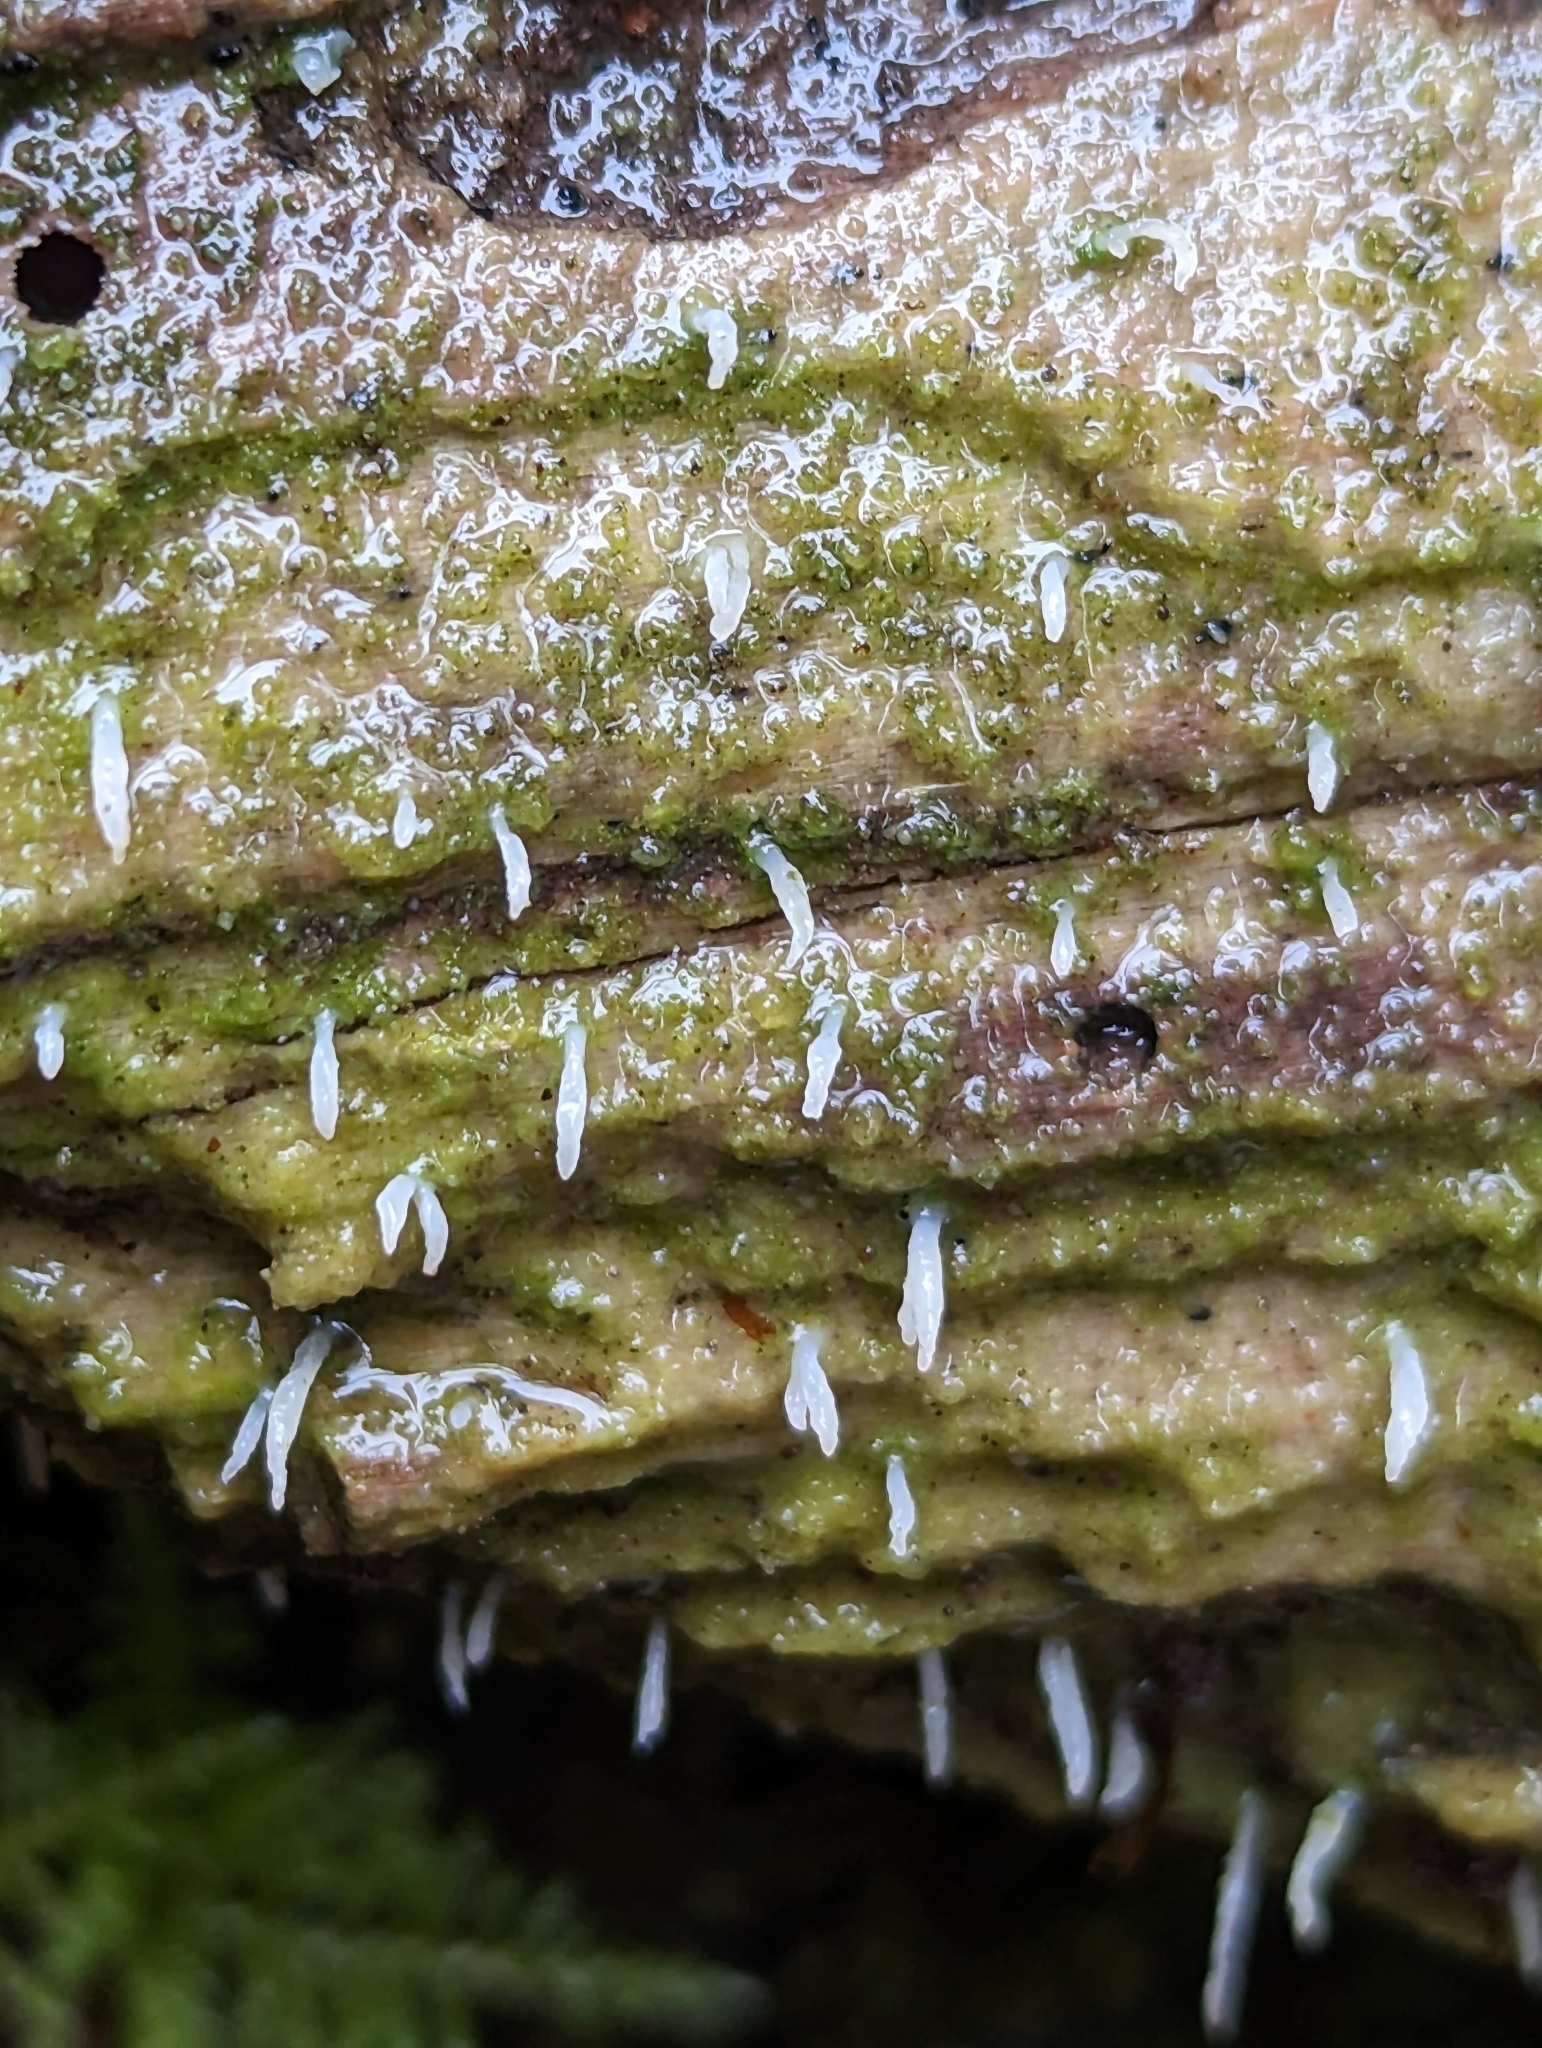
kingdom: Fungi
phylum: Basidiomycota
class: Agaricomycetes
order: Cantharellales
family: Hydnaceae
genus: Multiclavula
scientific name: Multiclavula mucida
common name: White green-algae coral
